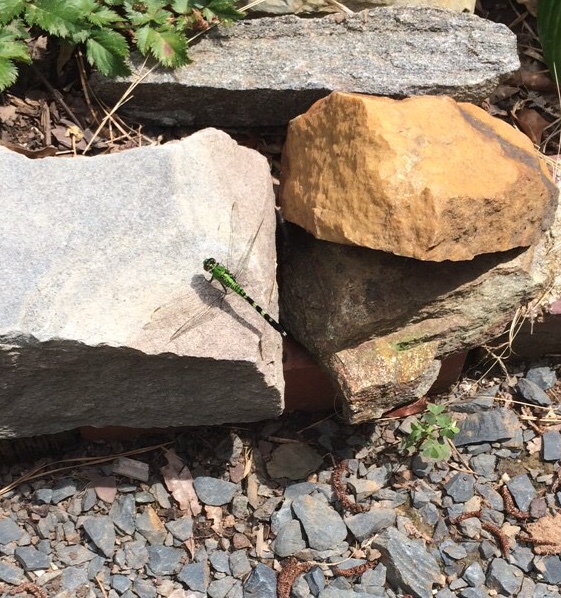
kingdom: Animalia
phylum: Arthropoda
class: Insecta
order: Odonata
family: Libellulidae
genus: Erythemis
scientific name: Erythemis simplicicollis
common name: Eastern pondhawk
